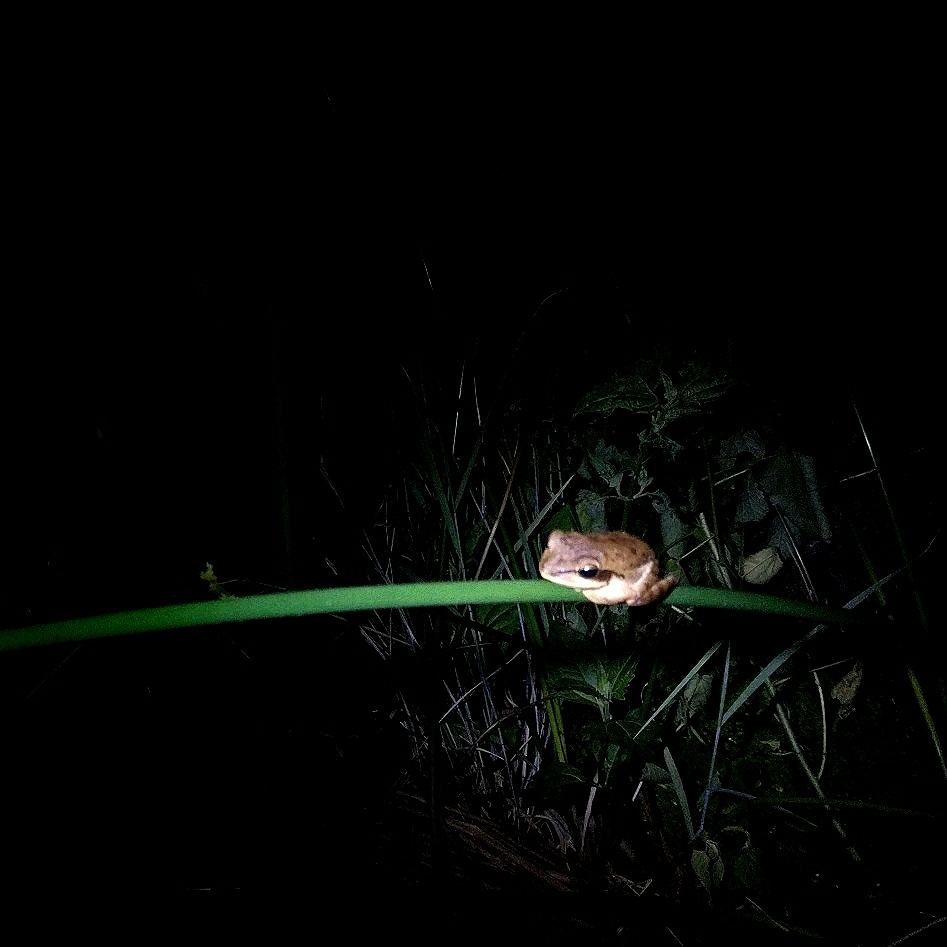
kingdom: Animalia
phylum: Chordata
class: Amphibia
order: Anura
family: Rhacophoridae
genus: Polypedates
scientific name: Polypedates maculatus
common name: Himalayan tree frog
